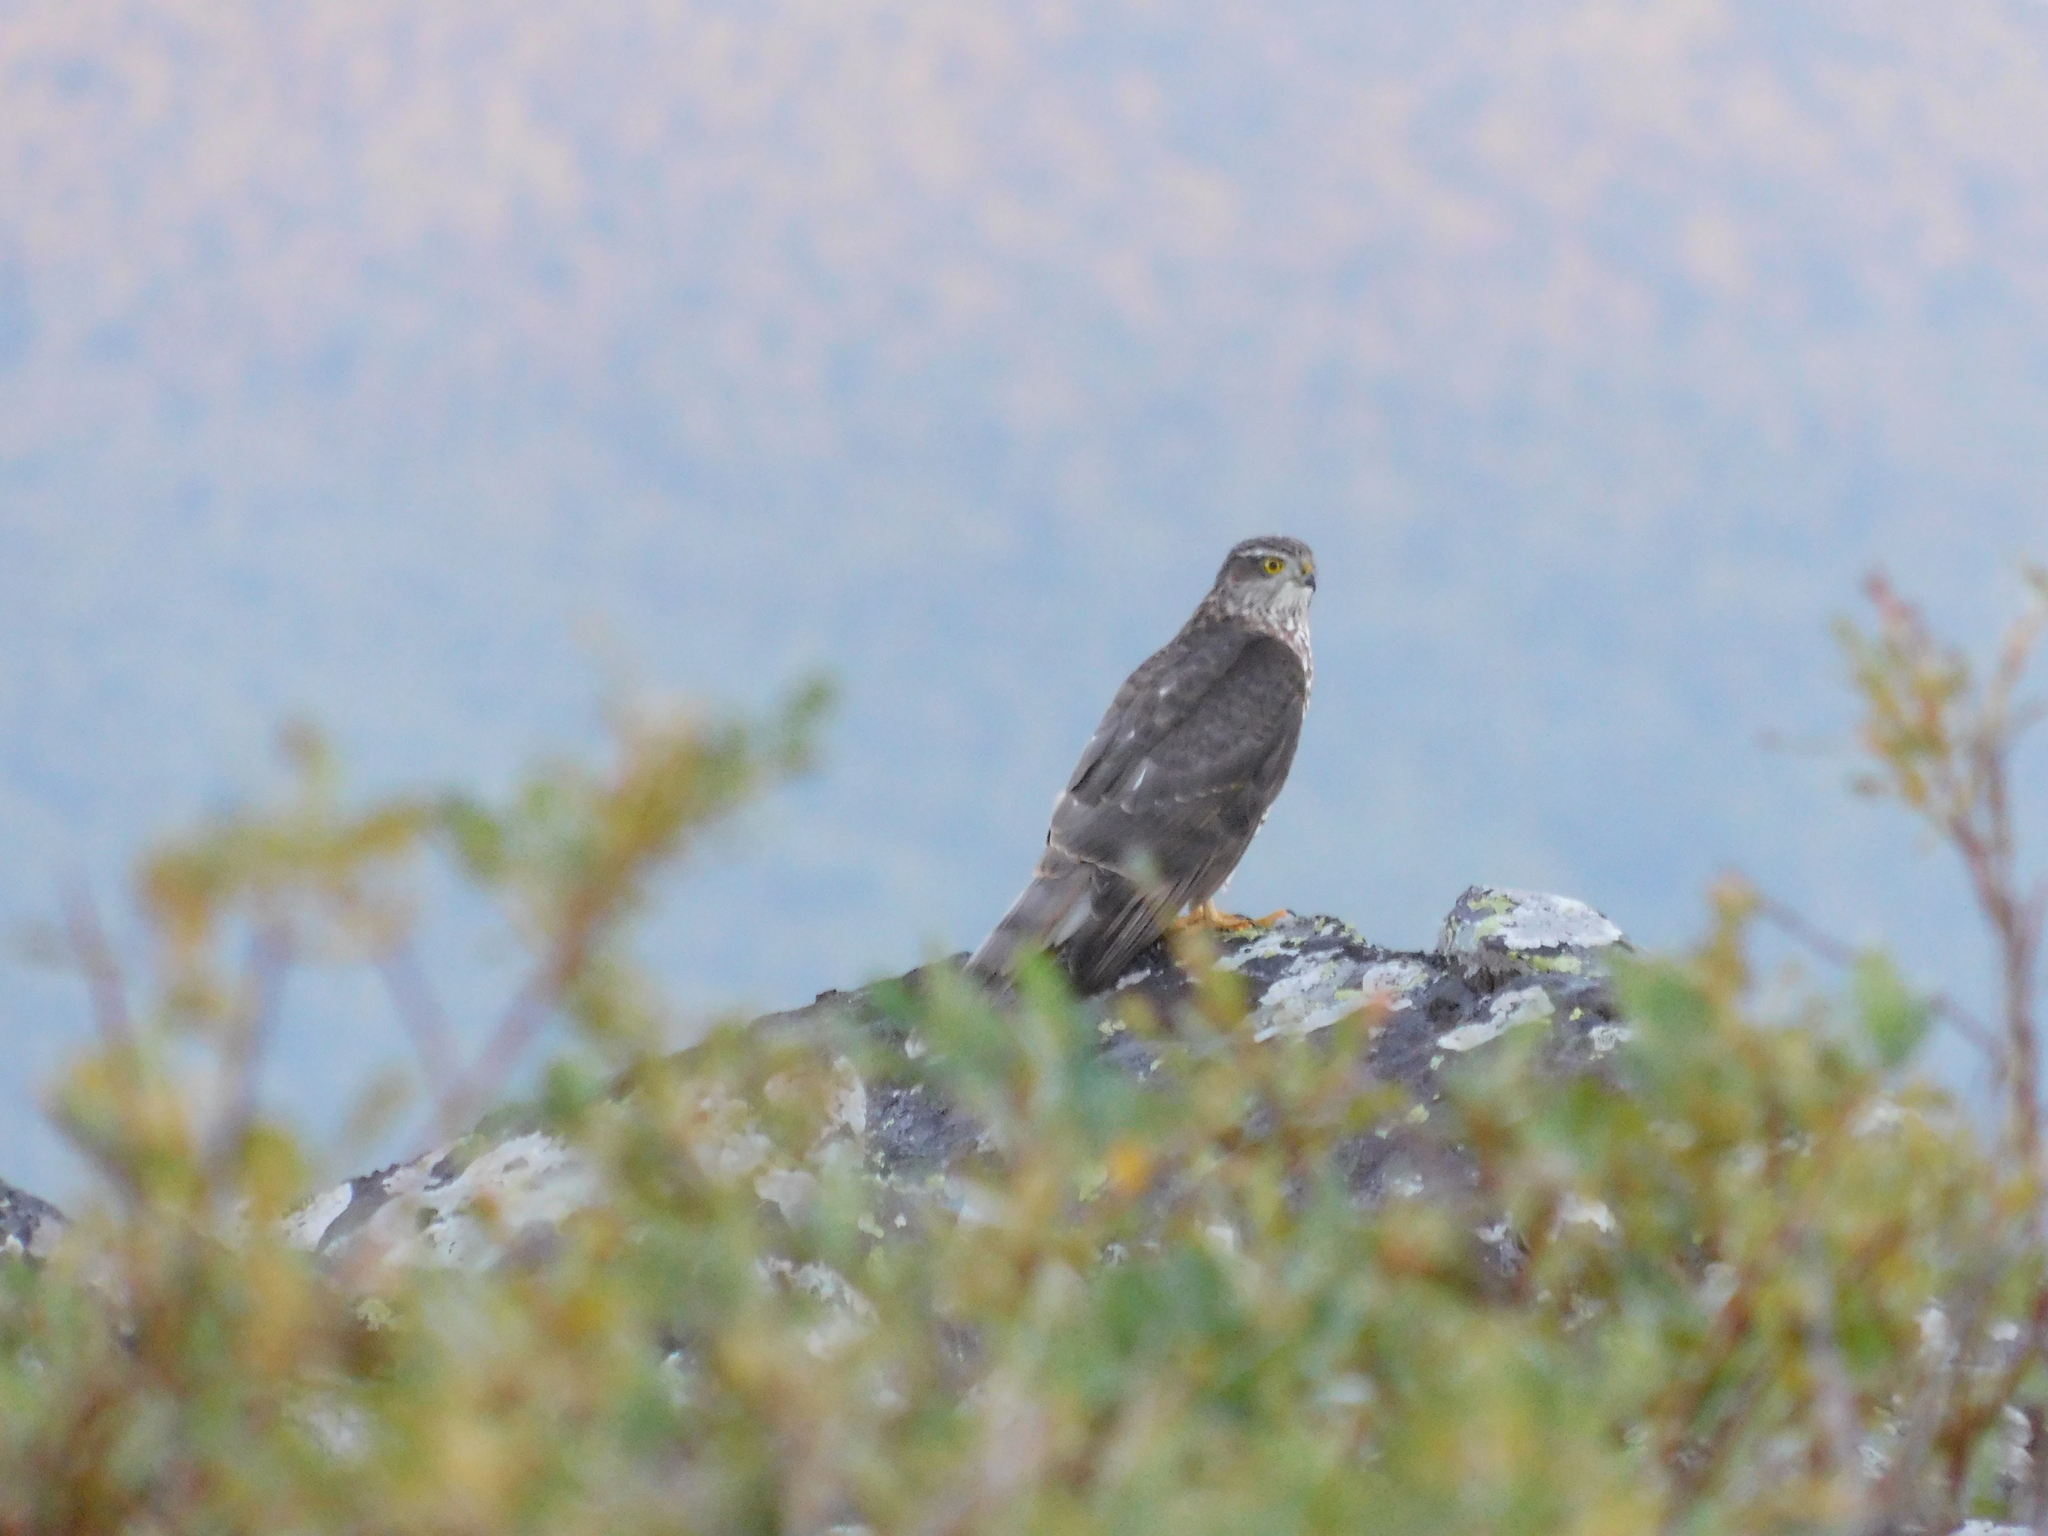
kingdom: Animalia
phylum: Chordata
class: Aves
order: Accipitriformes
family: Accipitridae
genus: Accipiter
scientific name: Accipiter nisus
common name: Eurasian sparrowhawk
